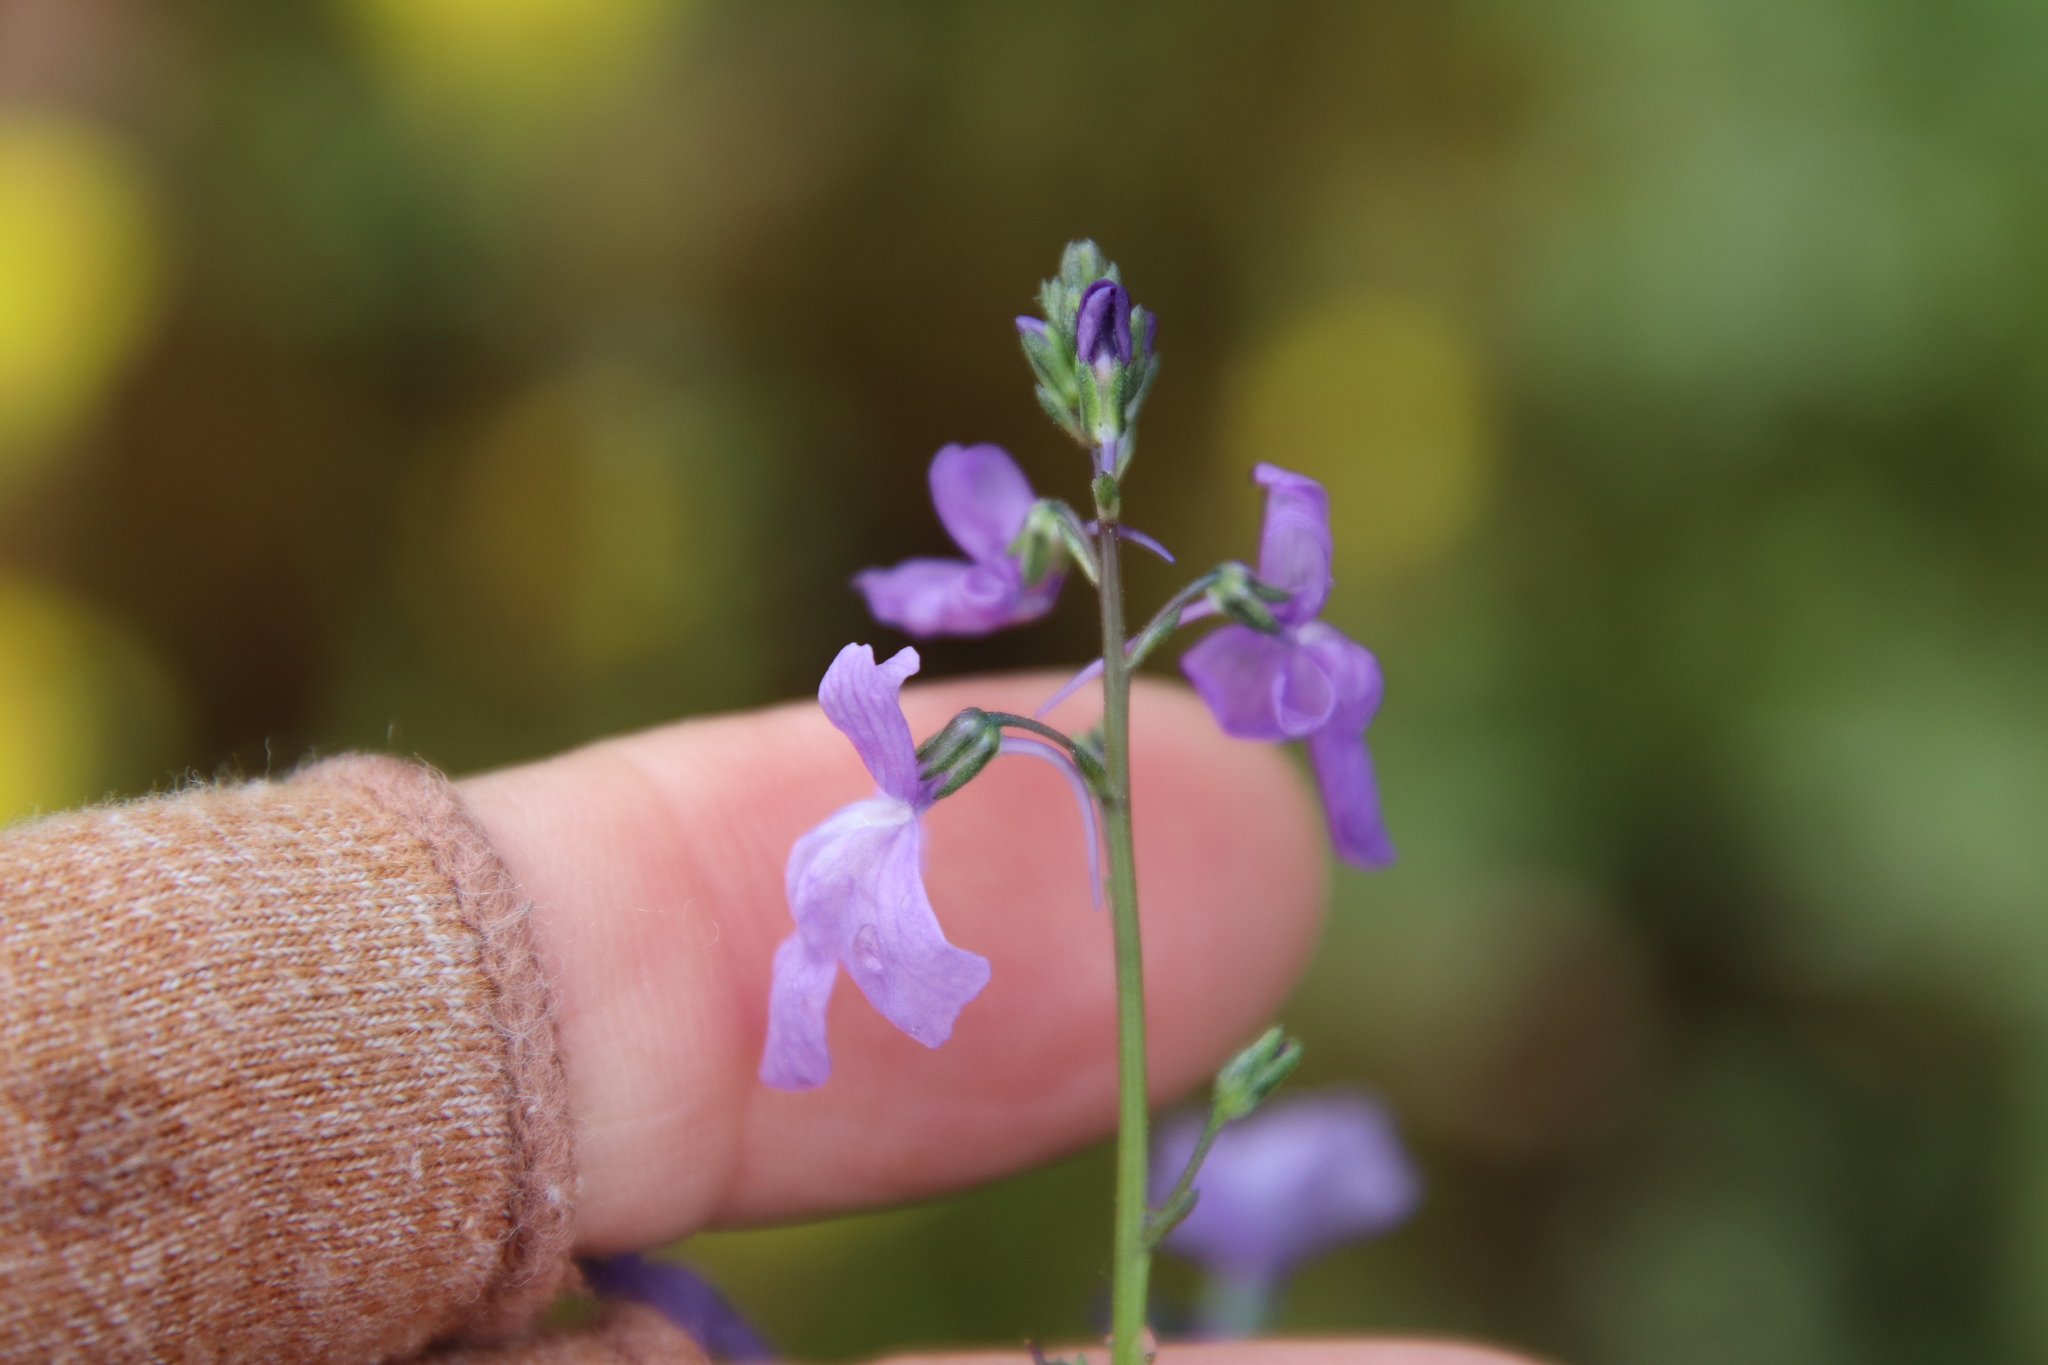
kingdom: Plantae
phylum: Tracheophyta
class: Magnoliopsida
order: Lamiales
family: Plantaginaceae
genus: Nuttallanthus
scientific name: Nuttallanthus texanus
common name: Texas toadflax
